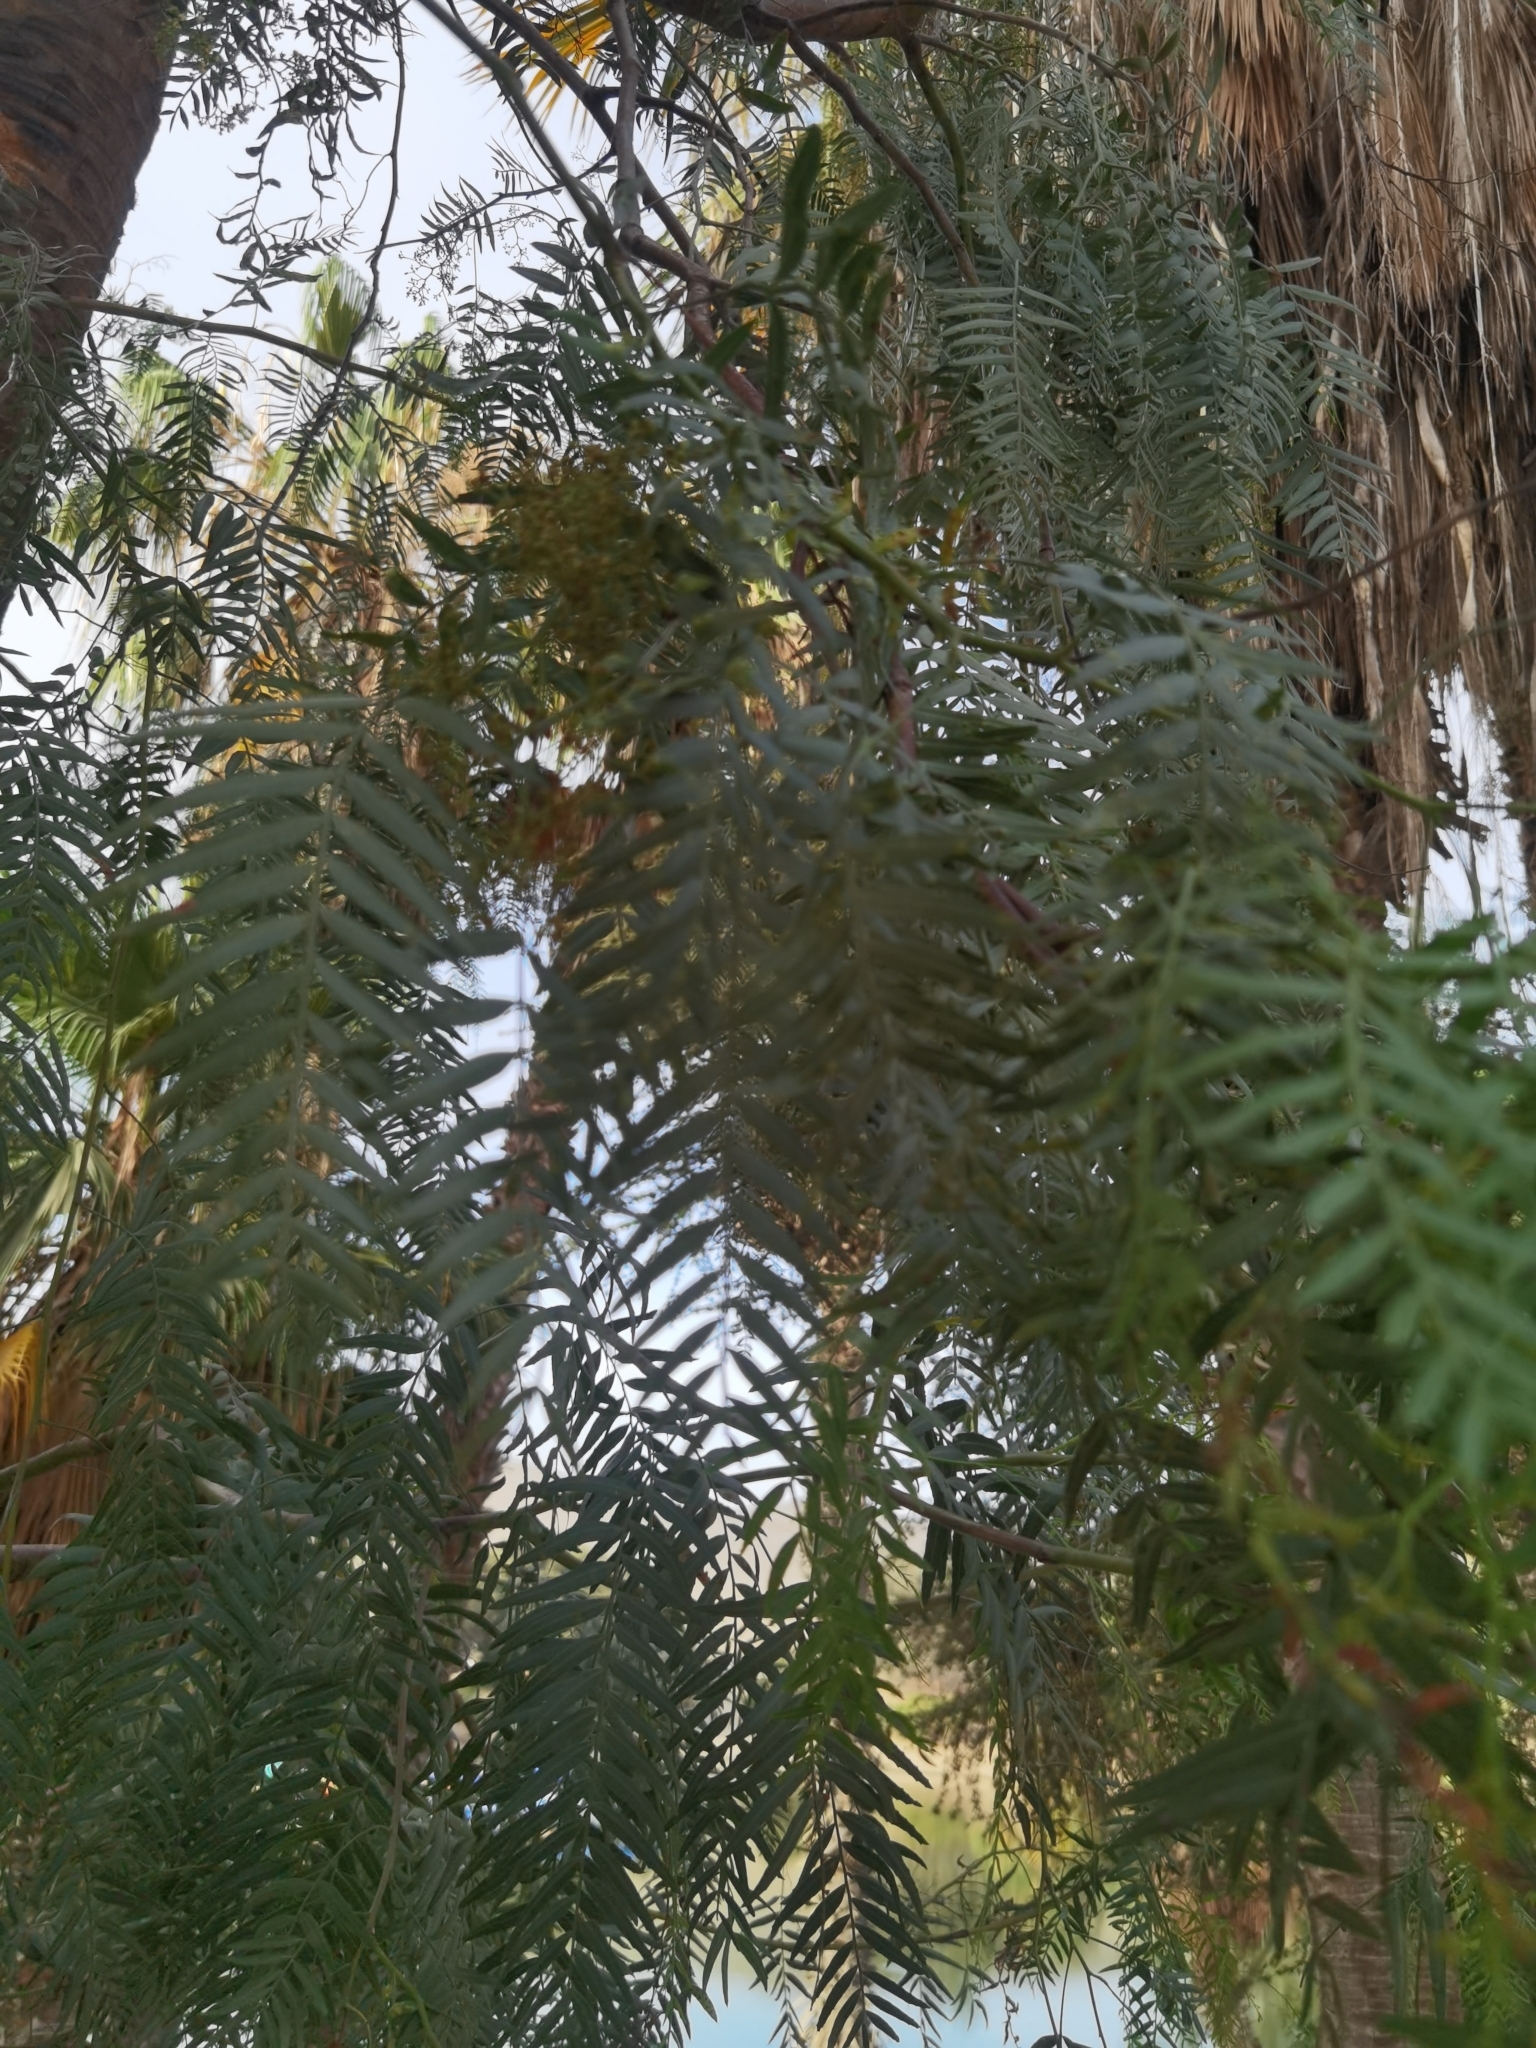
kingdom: Plantae
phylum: Tracheophyta
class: Magnoliopsida
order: Sapindales
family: Anacardiaceae
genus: Schinus
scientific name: Schinus molle
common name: Peruvian peppertree
